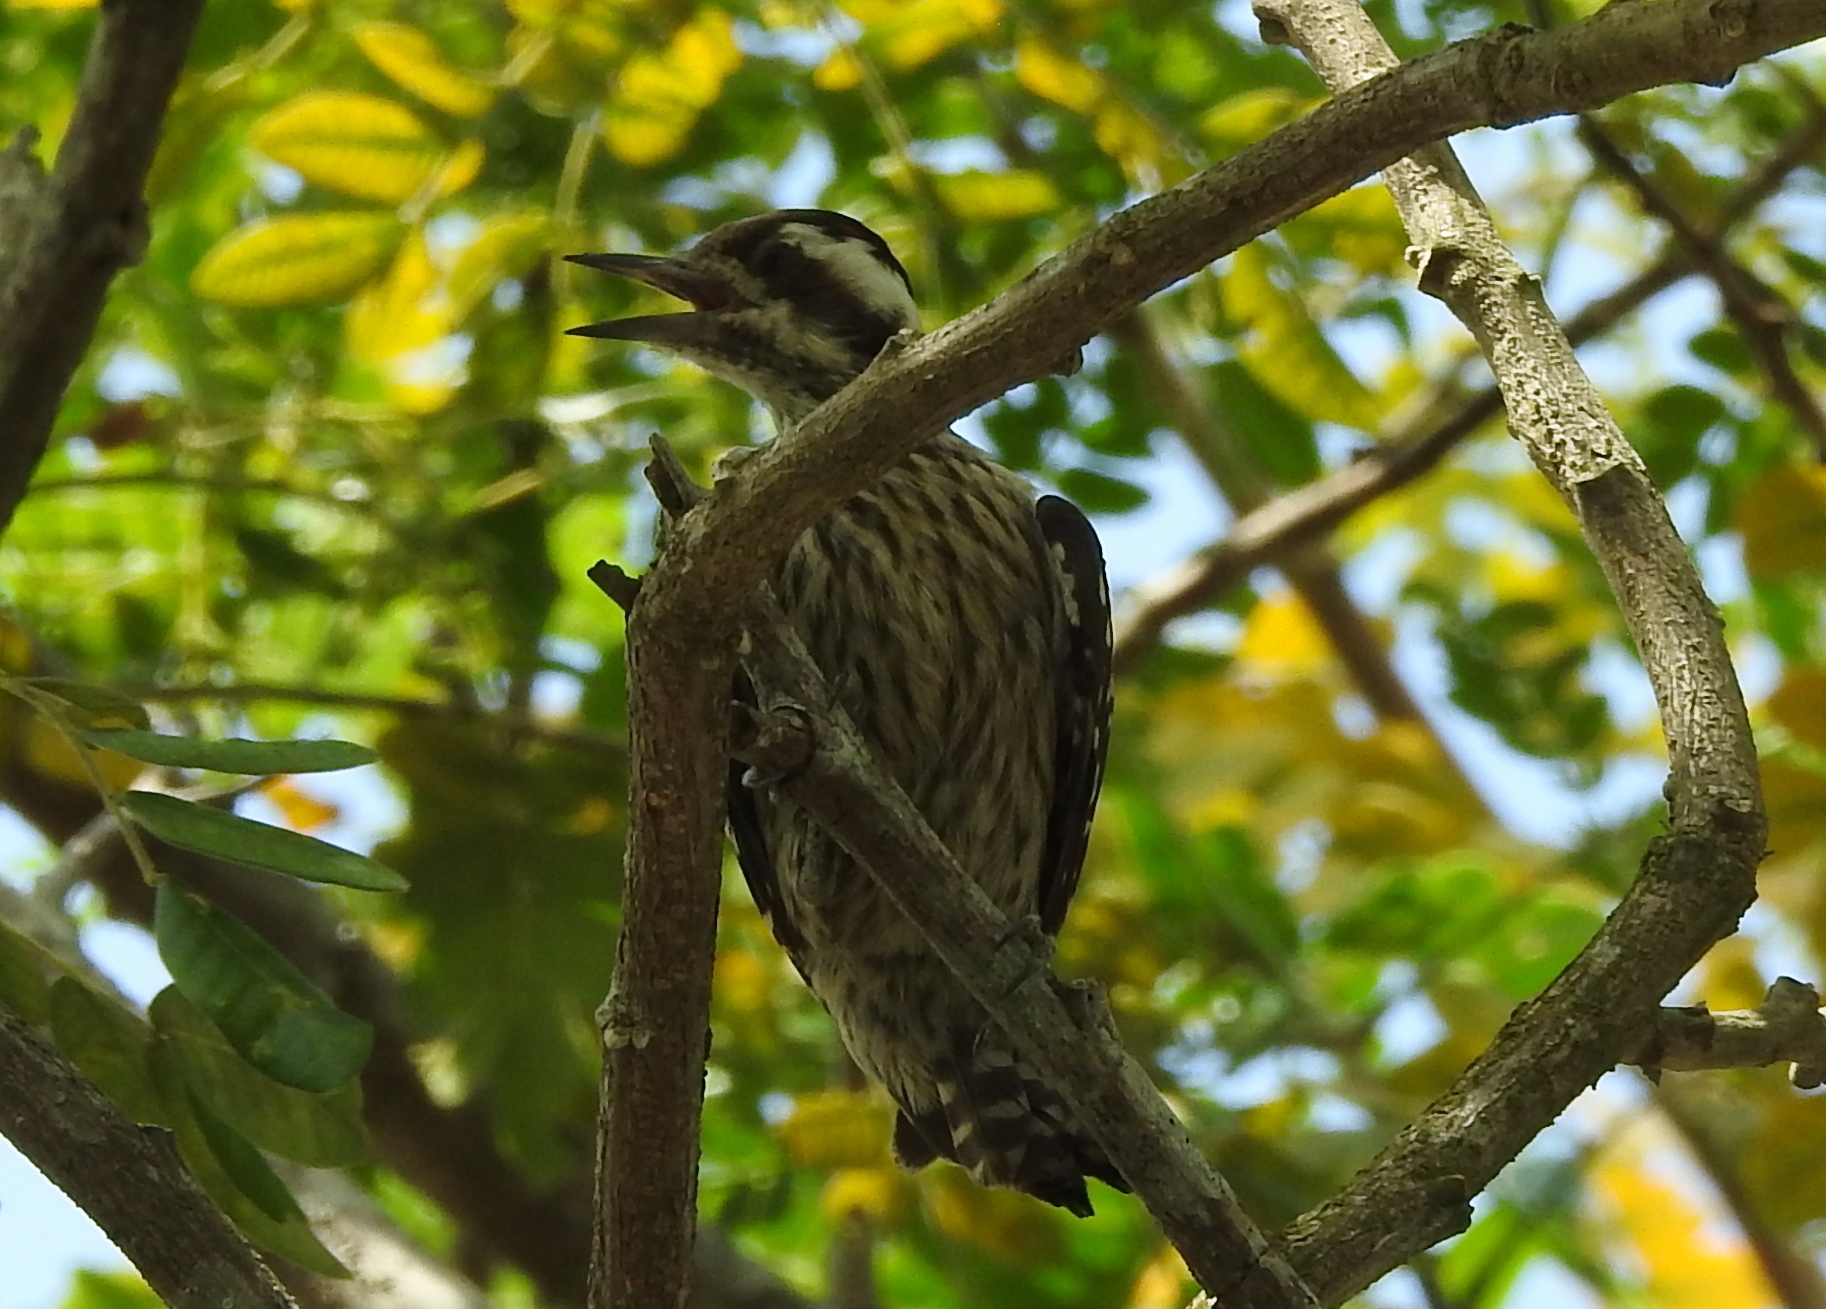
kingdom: Animalia
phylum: Chordata
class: Aves
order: Piciformes
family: Picidae
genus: Yungipicus
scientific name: Yungipicus moluccensis
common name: Sunda pygmy woodpecker
